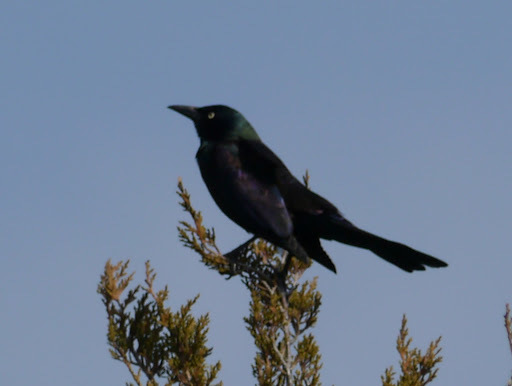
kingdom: Animalia
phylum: Chordata
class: Aves
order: Passeriformes
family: Icteridae
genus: Quiscalus
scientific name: Quiscalus quiscula
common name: Common grackle
